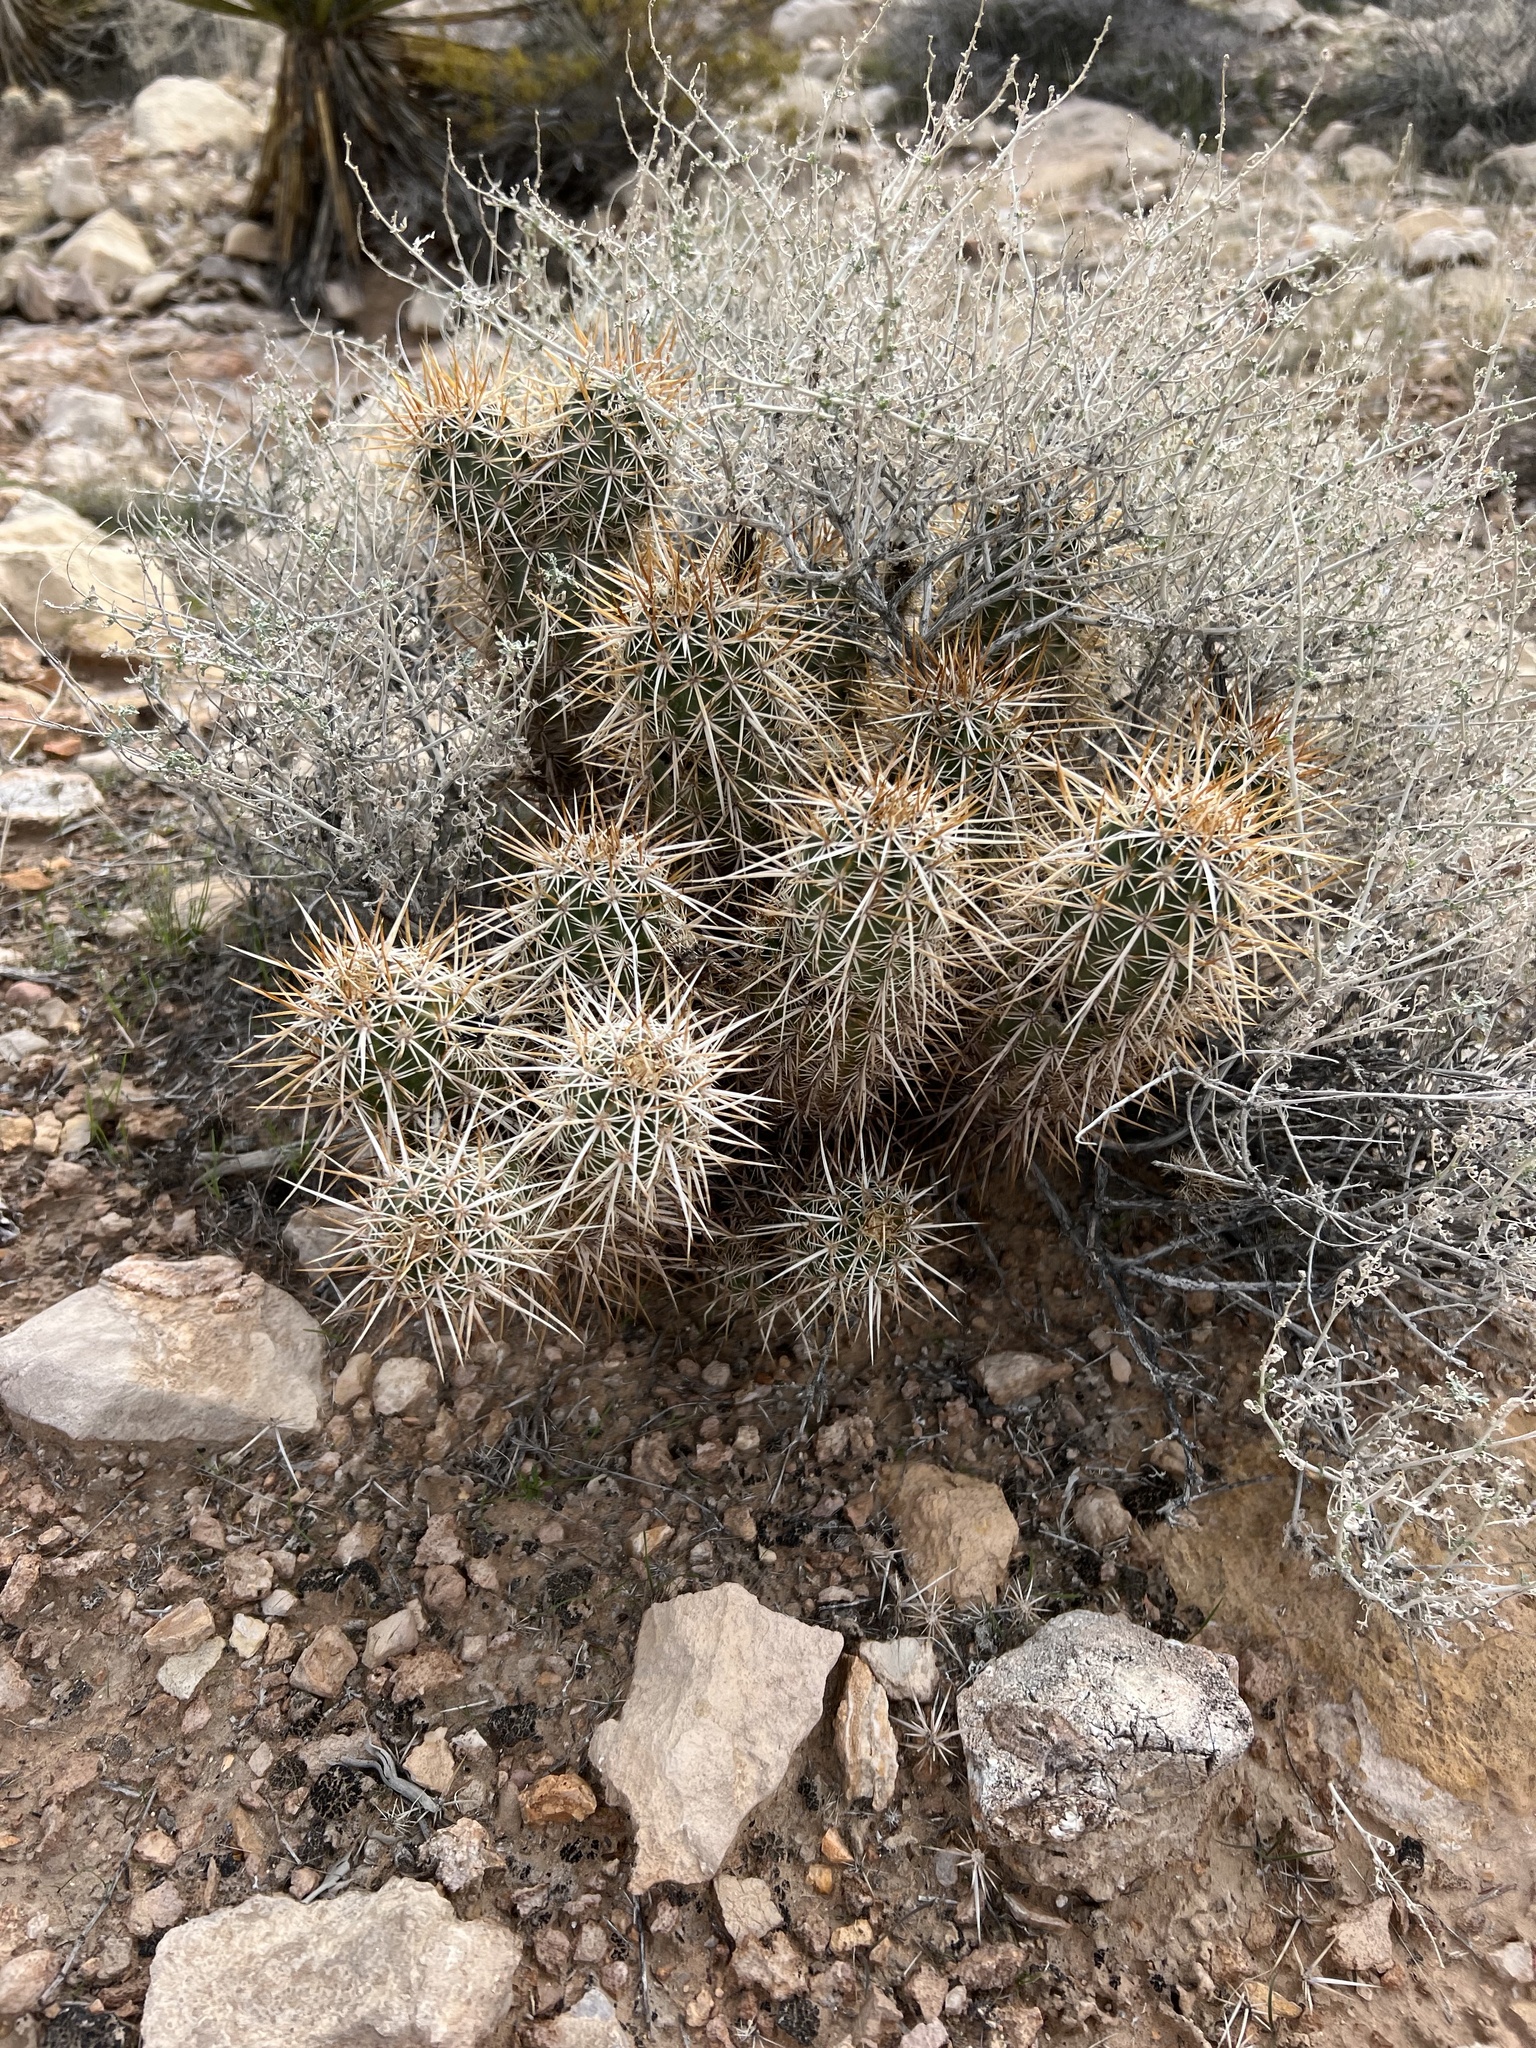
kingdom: Plantae
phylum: Tracheophyta
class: Magnoliopsida
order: Caryophyllales
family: Cactaceae
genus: Echinocereus
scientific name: Echinocereus engelmannii
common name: Engelmann's hedgehog cactus
